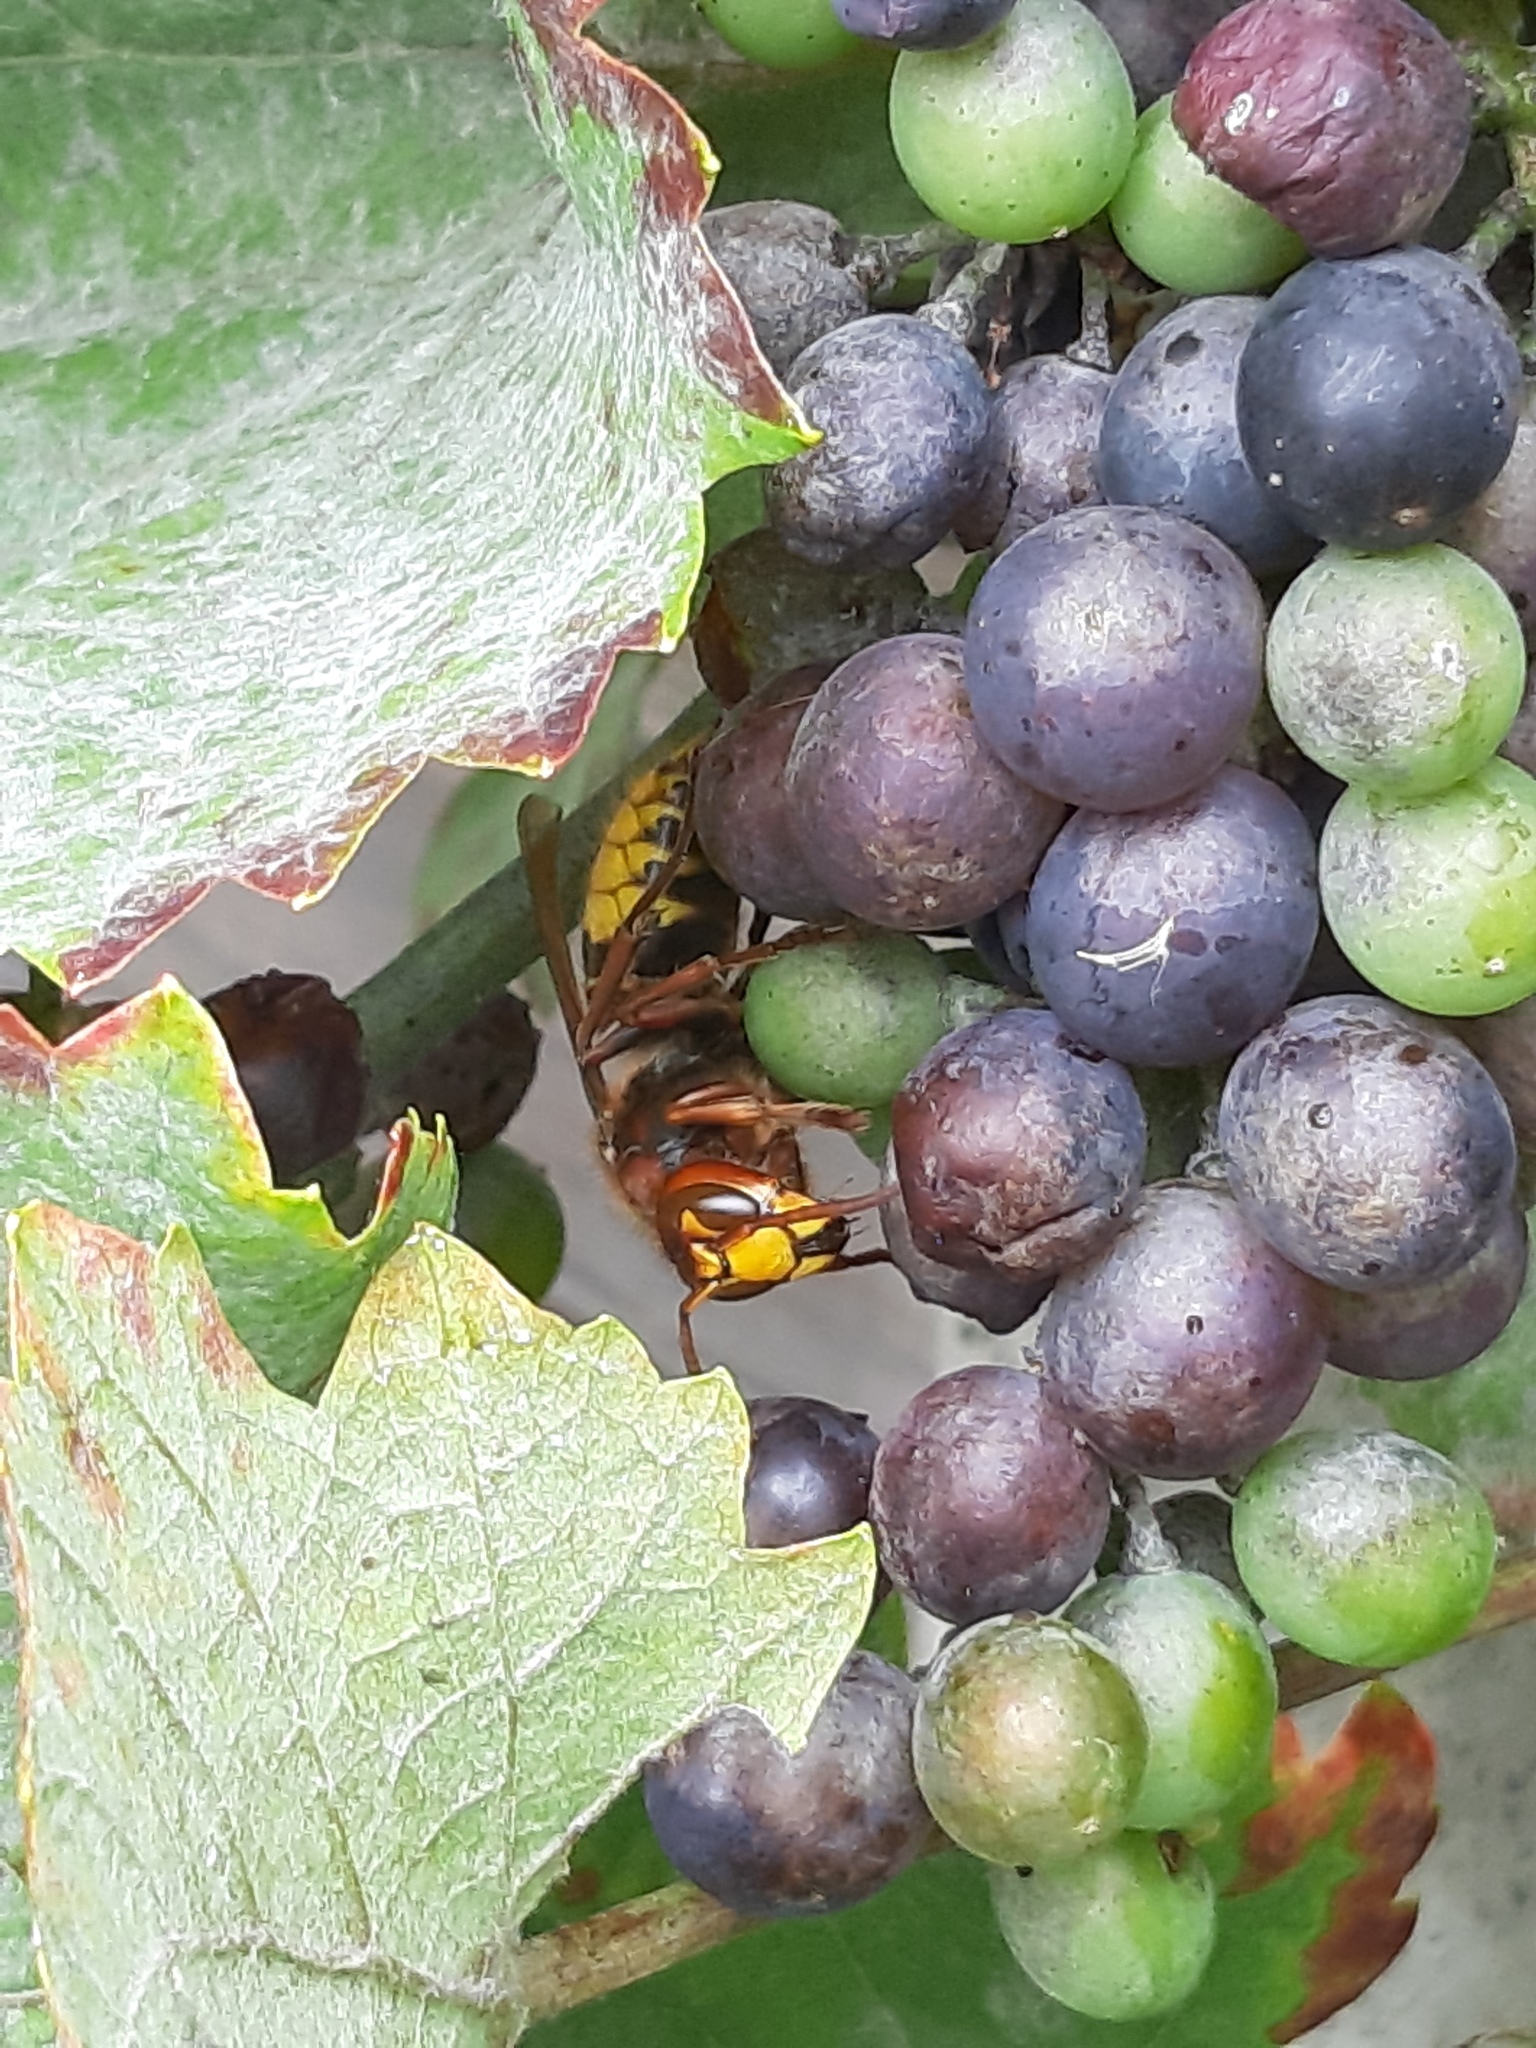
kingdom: Animalia
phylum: Arthropoda
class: Insecta
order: Hymenoptera
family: Vespidae
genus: Vespa
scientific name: Vespa crabro
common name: Hornet
